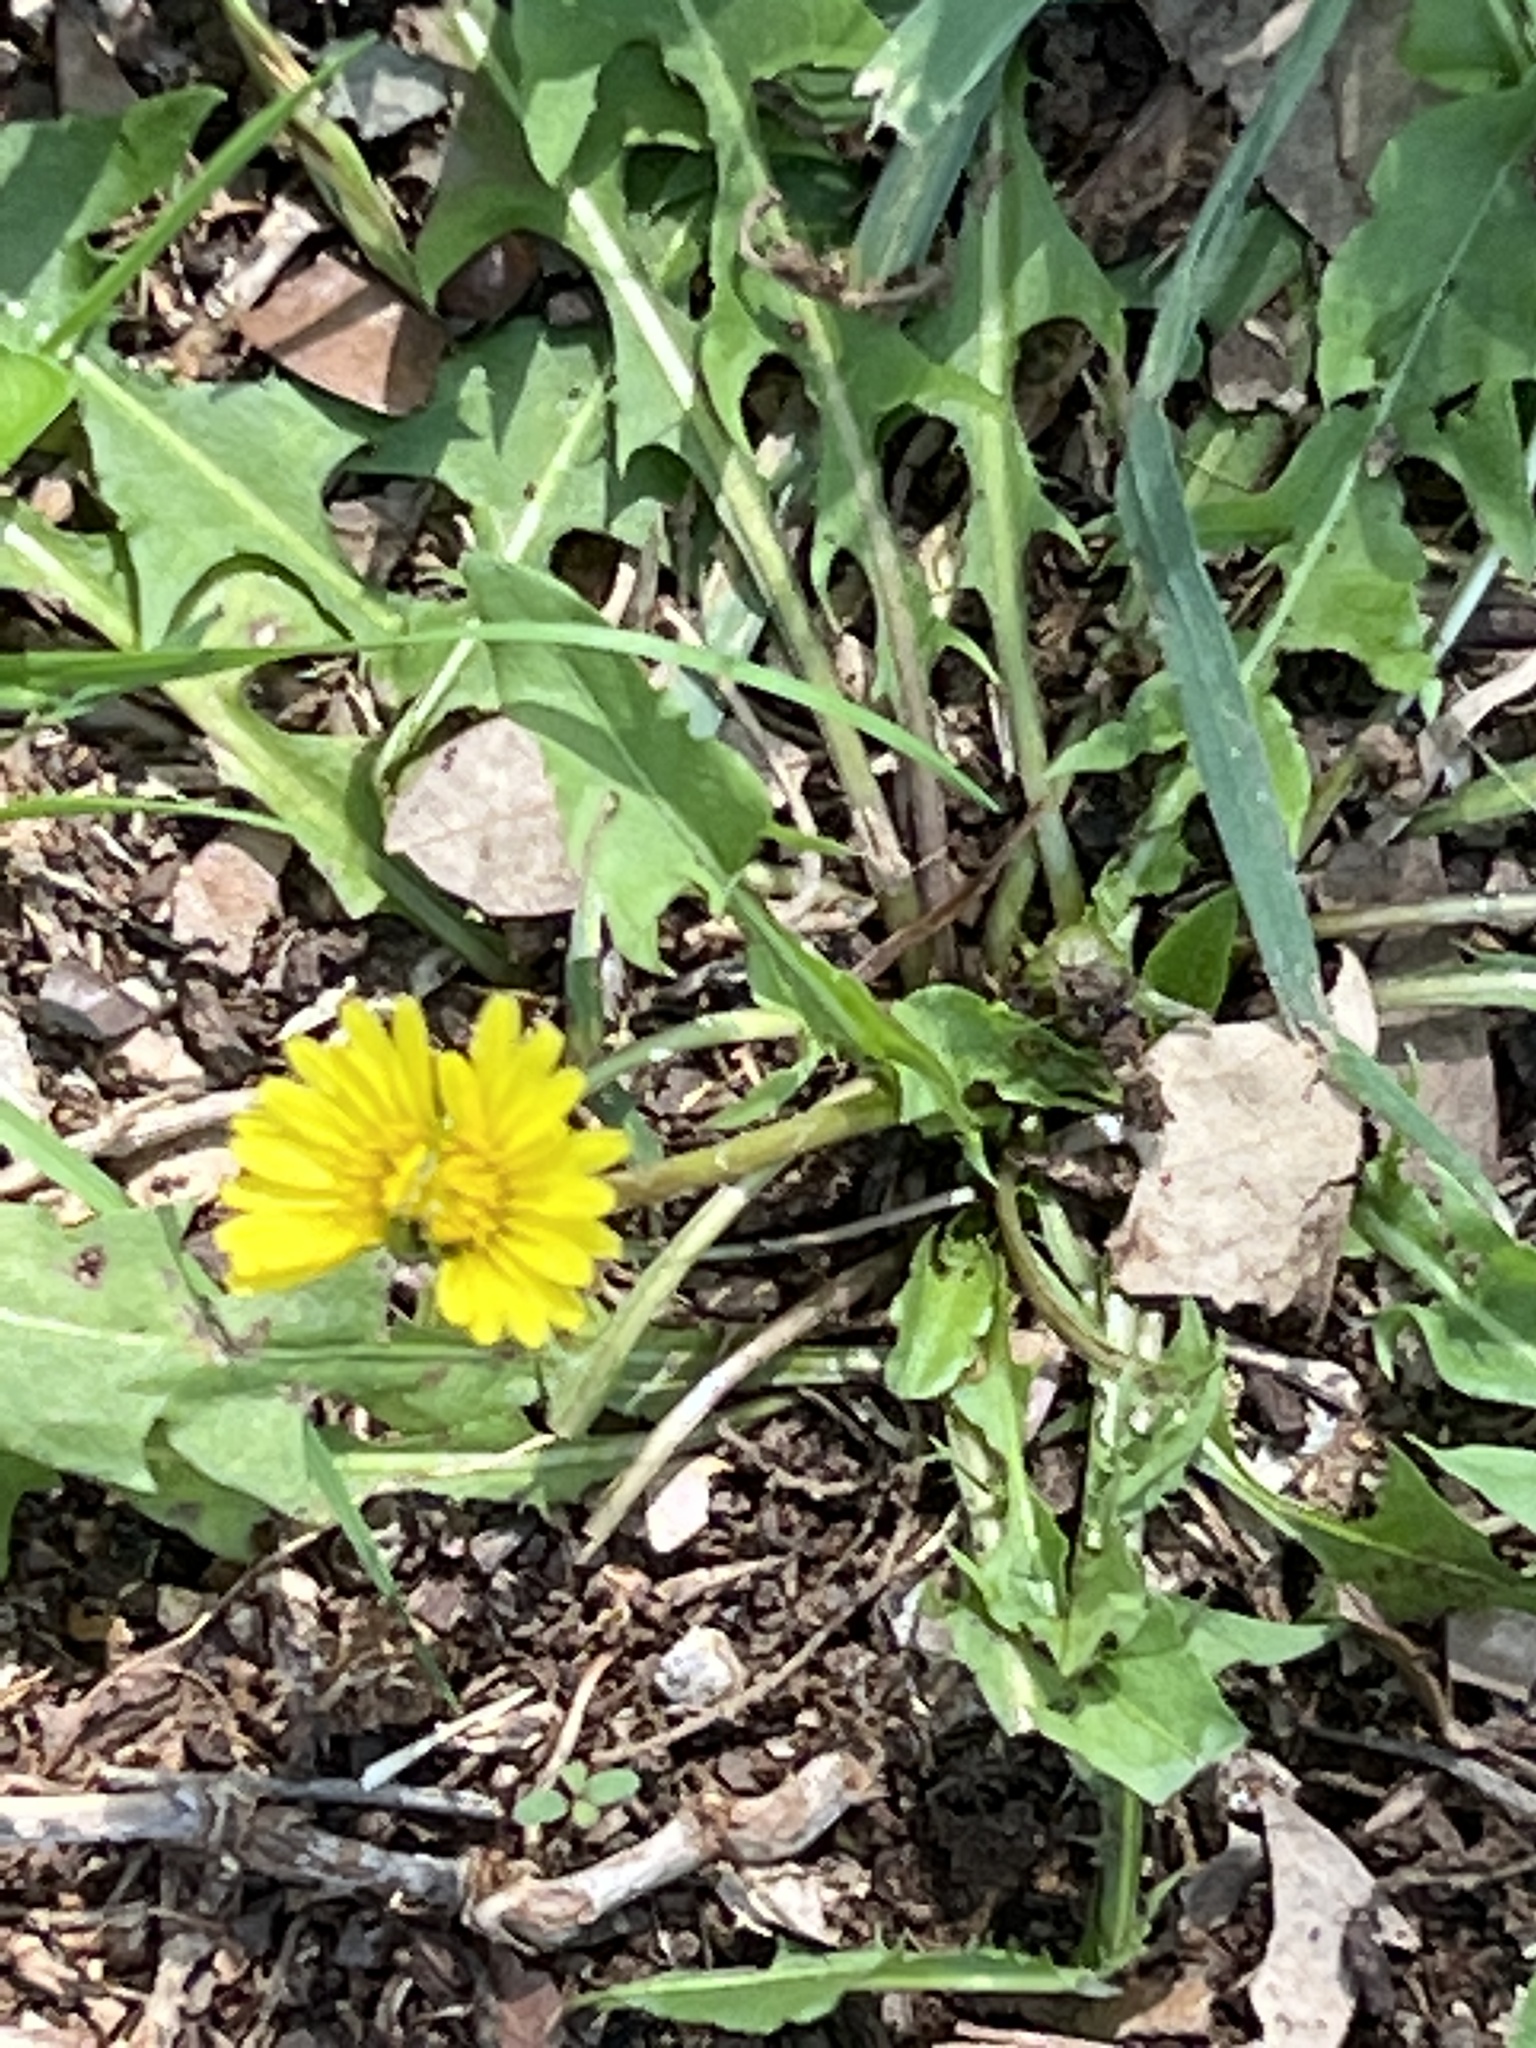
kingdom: Plantae
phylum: Tracheophyta
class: Magnoliopsida
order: Asterales
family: Asteraceae
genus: Taraxacum
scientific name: Taraxacum officinale
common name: Common dandelion
